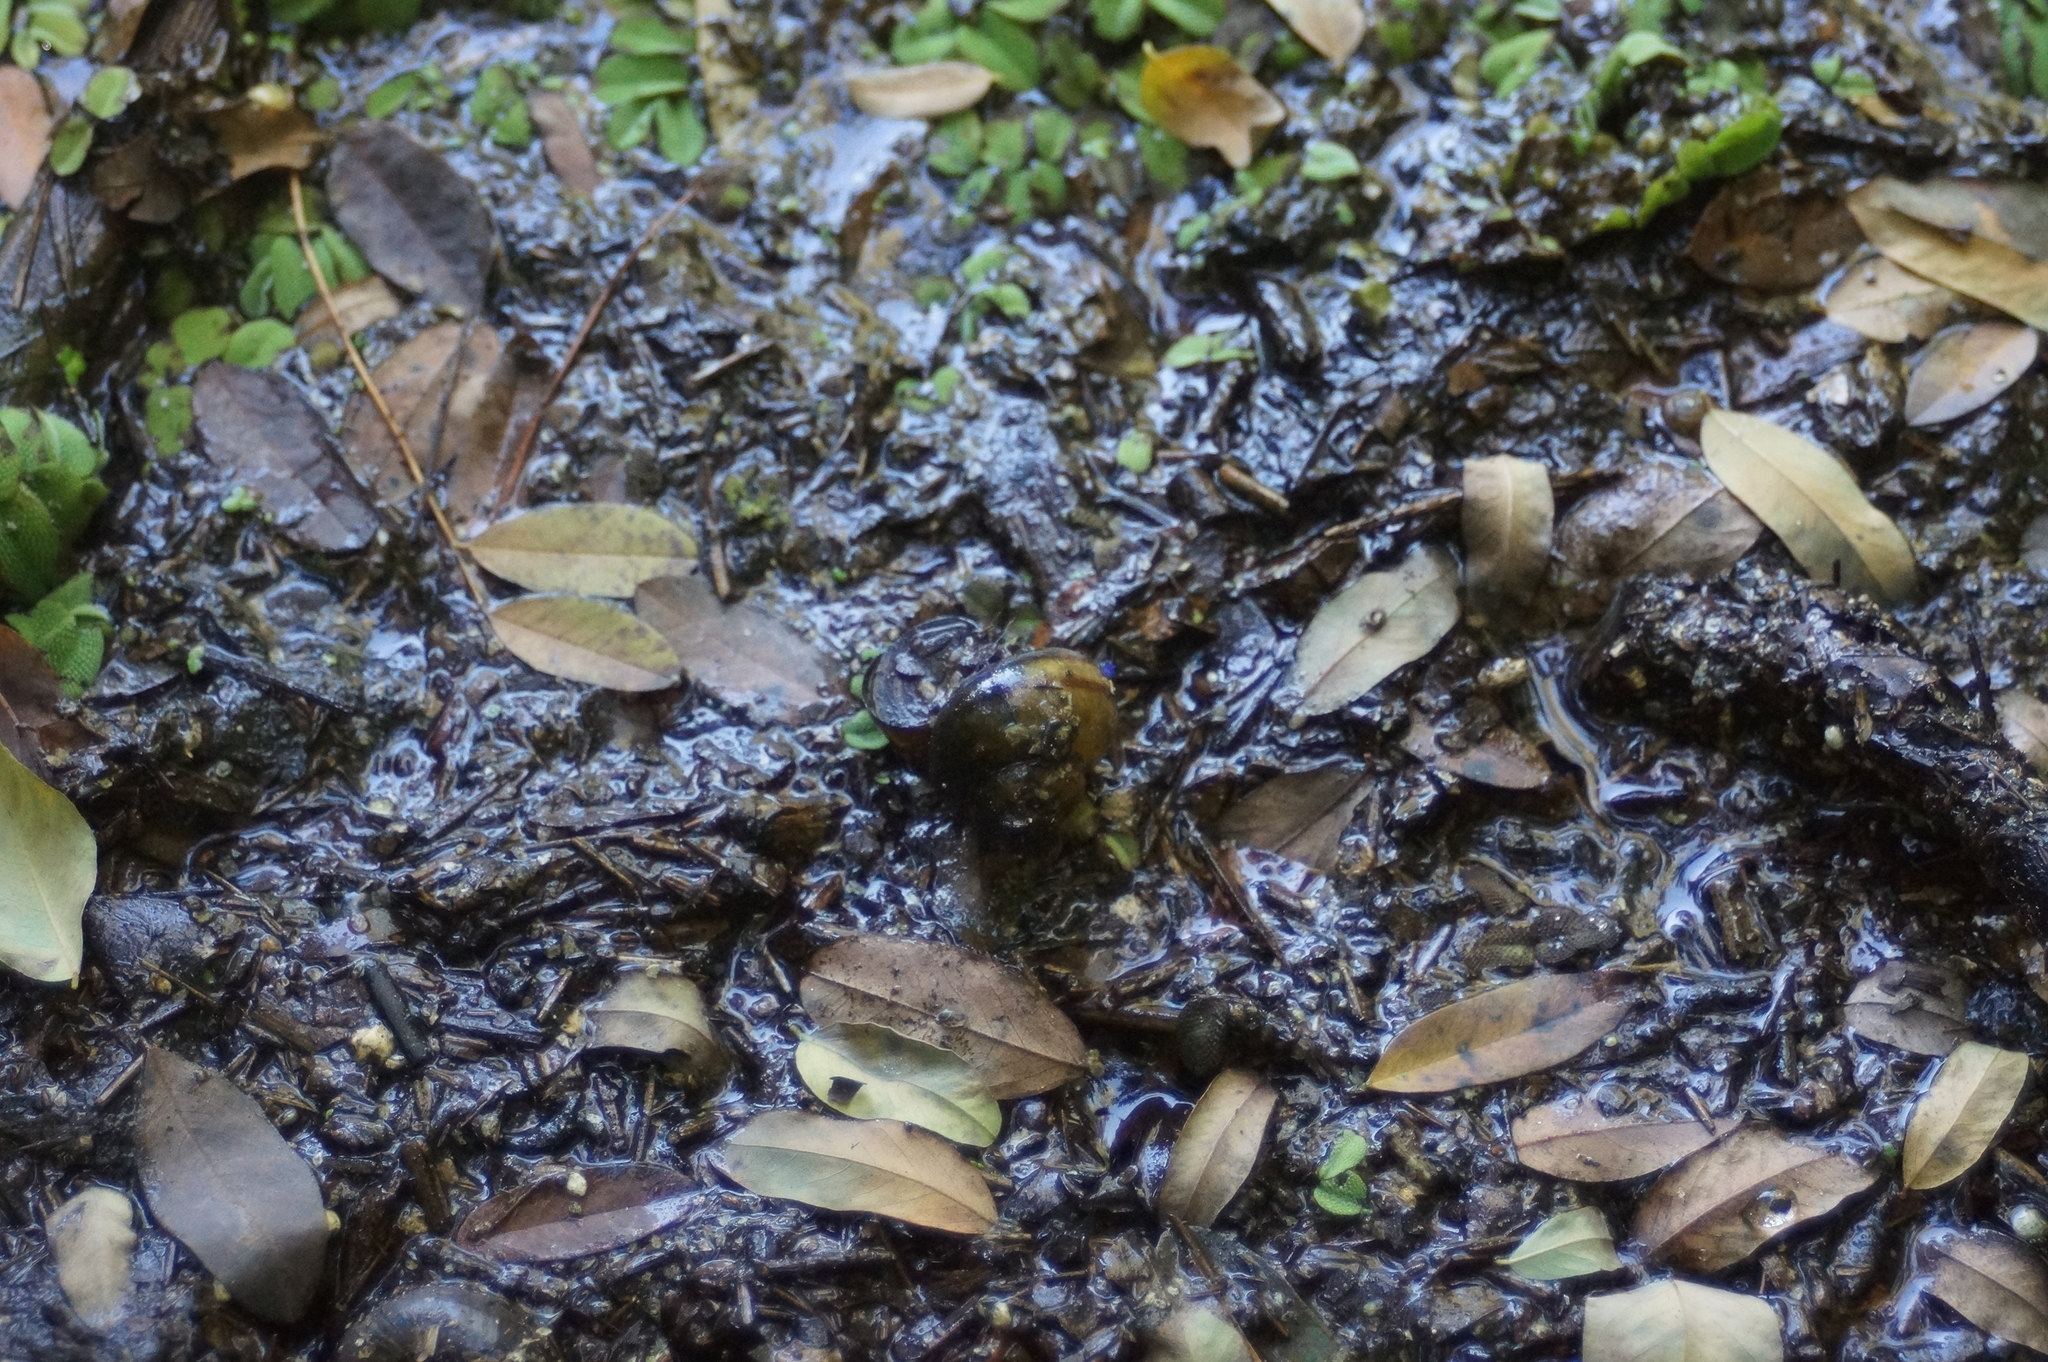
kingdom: Animalia
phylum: Mollusca
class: Gastropoda
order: Architaenioglossa
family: Viviparidae
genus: Viviparus
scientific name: Viviparus contectus
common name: Lister's river snail
